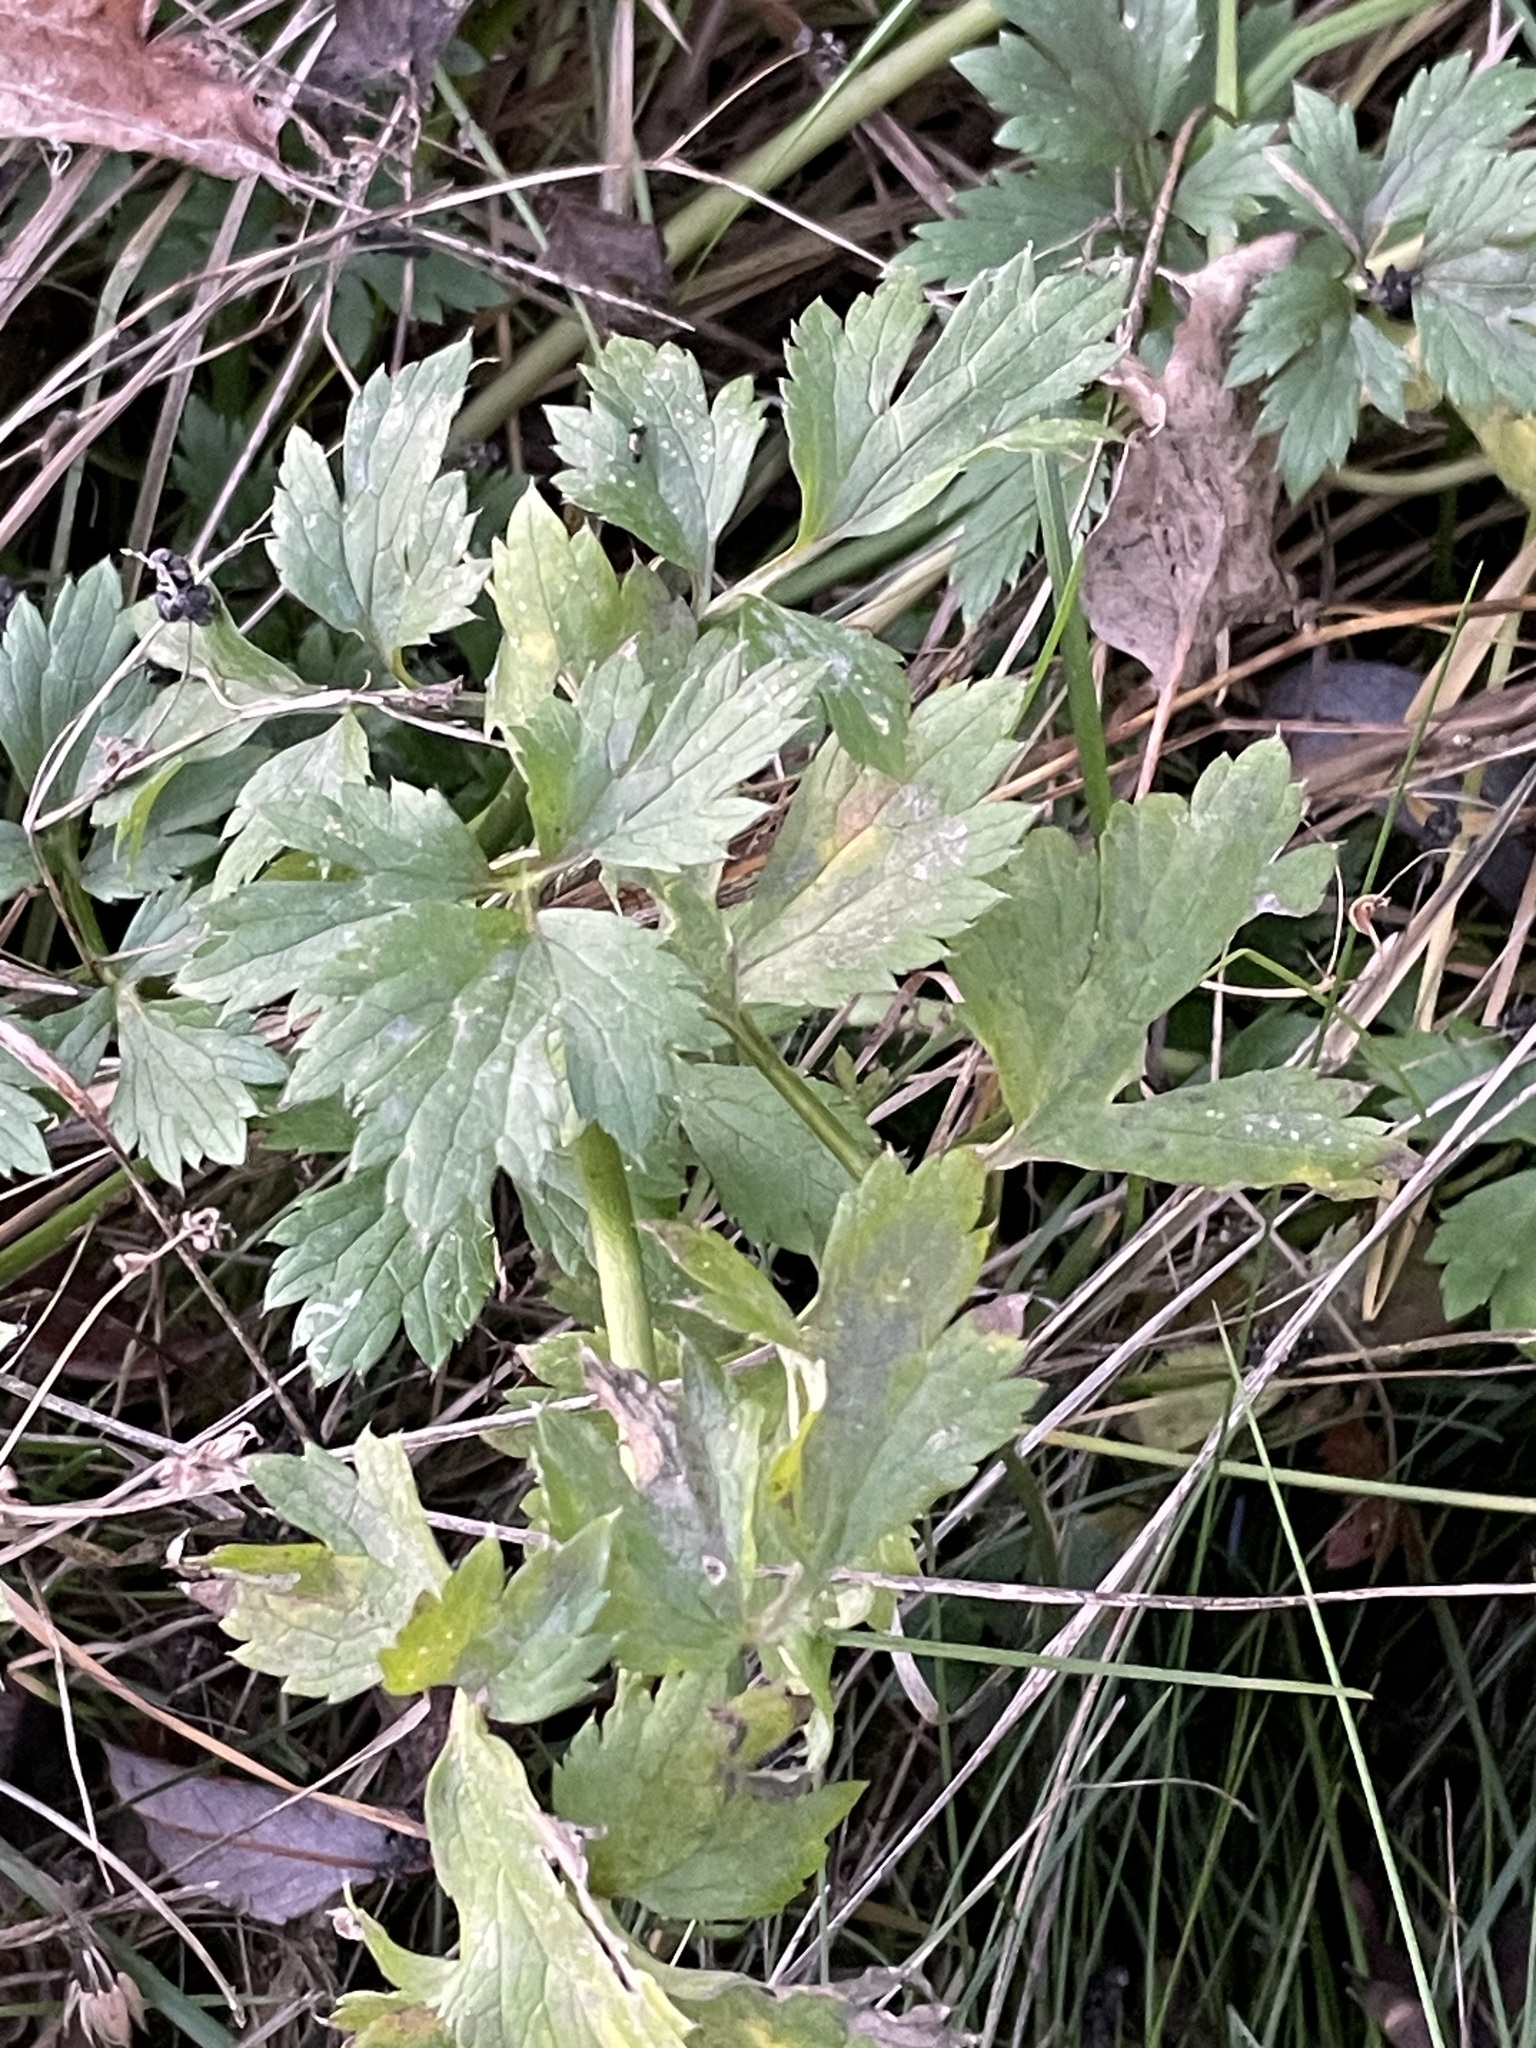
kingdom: Plantae
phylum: Tracheophyta
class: Magnoliopsida
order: Ranunculales
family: Ranunculaceae
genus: Ranunculus
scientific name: Ranunculus repens
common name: Creeping buttercup
